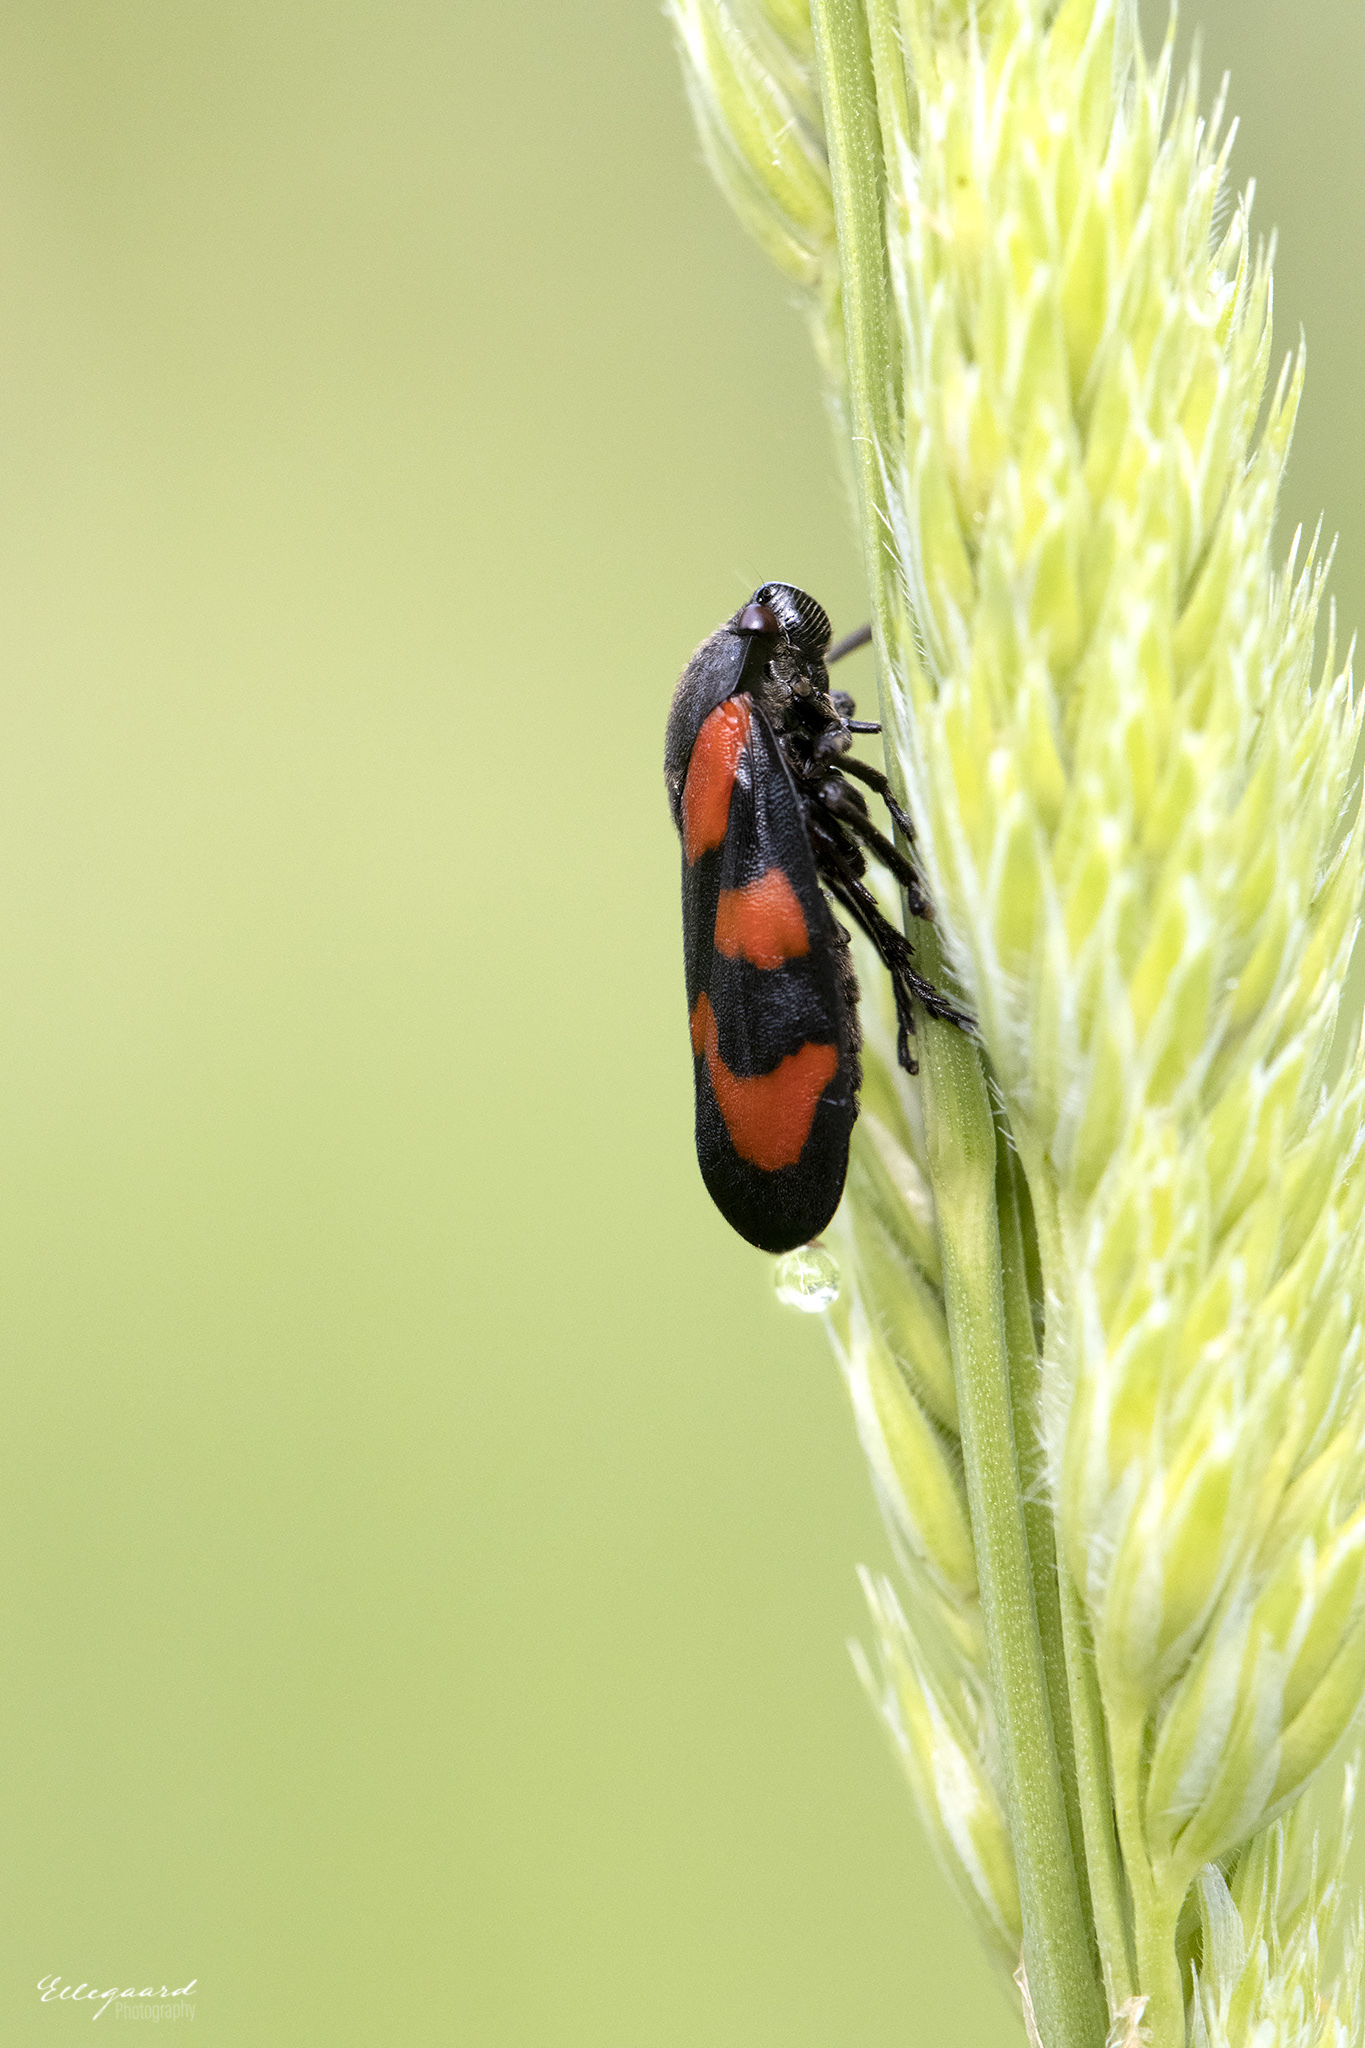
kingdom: Animalia
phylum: Arthropoda
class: Insecta
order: Hemiptera
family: Cercopidae
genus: Cercopis
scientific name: Cercopis vulnerata
